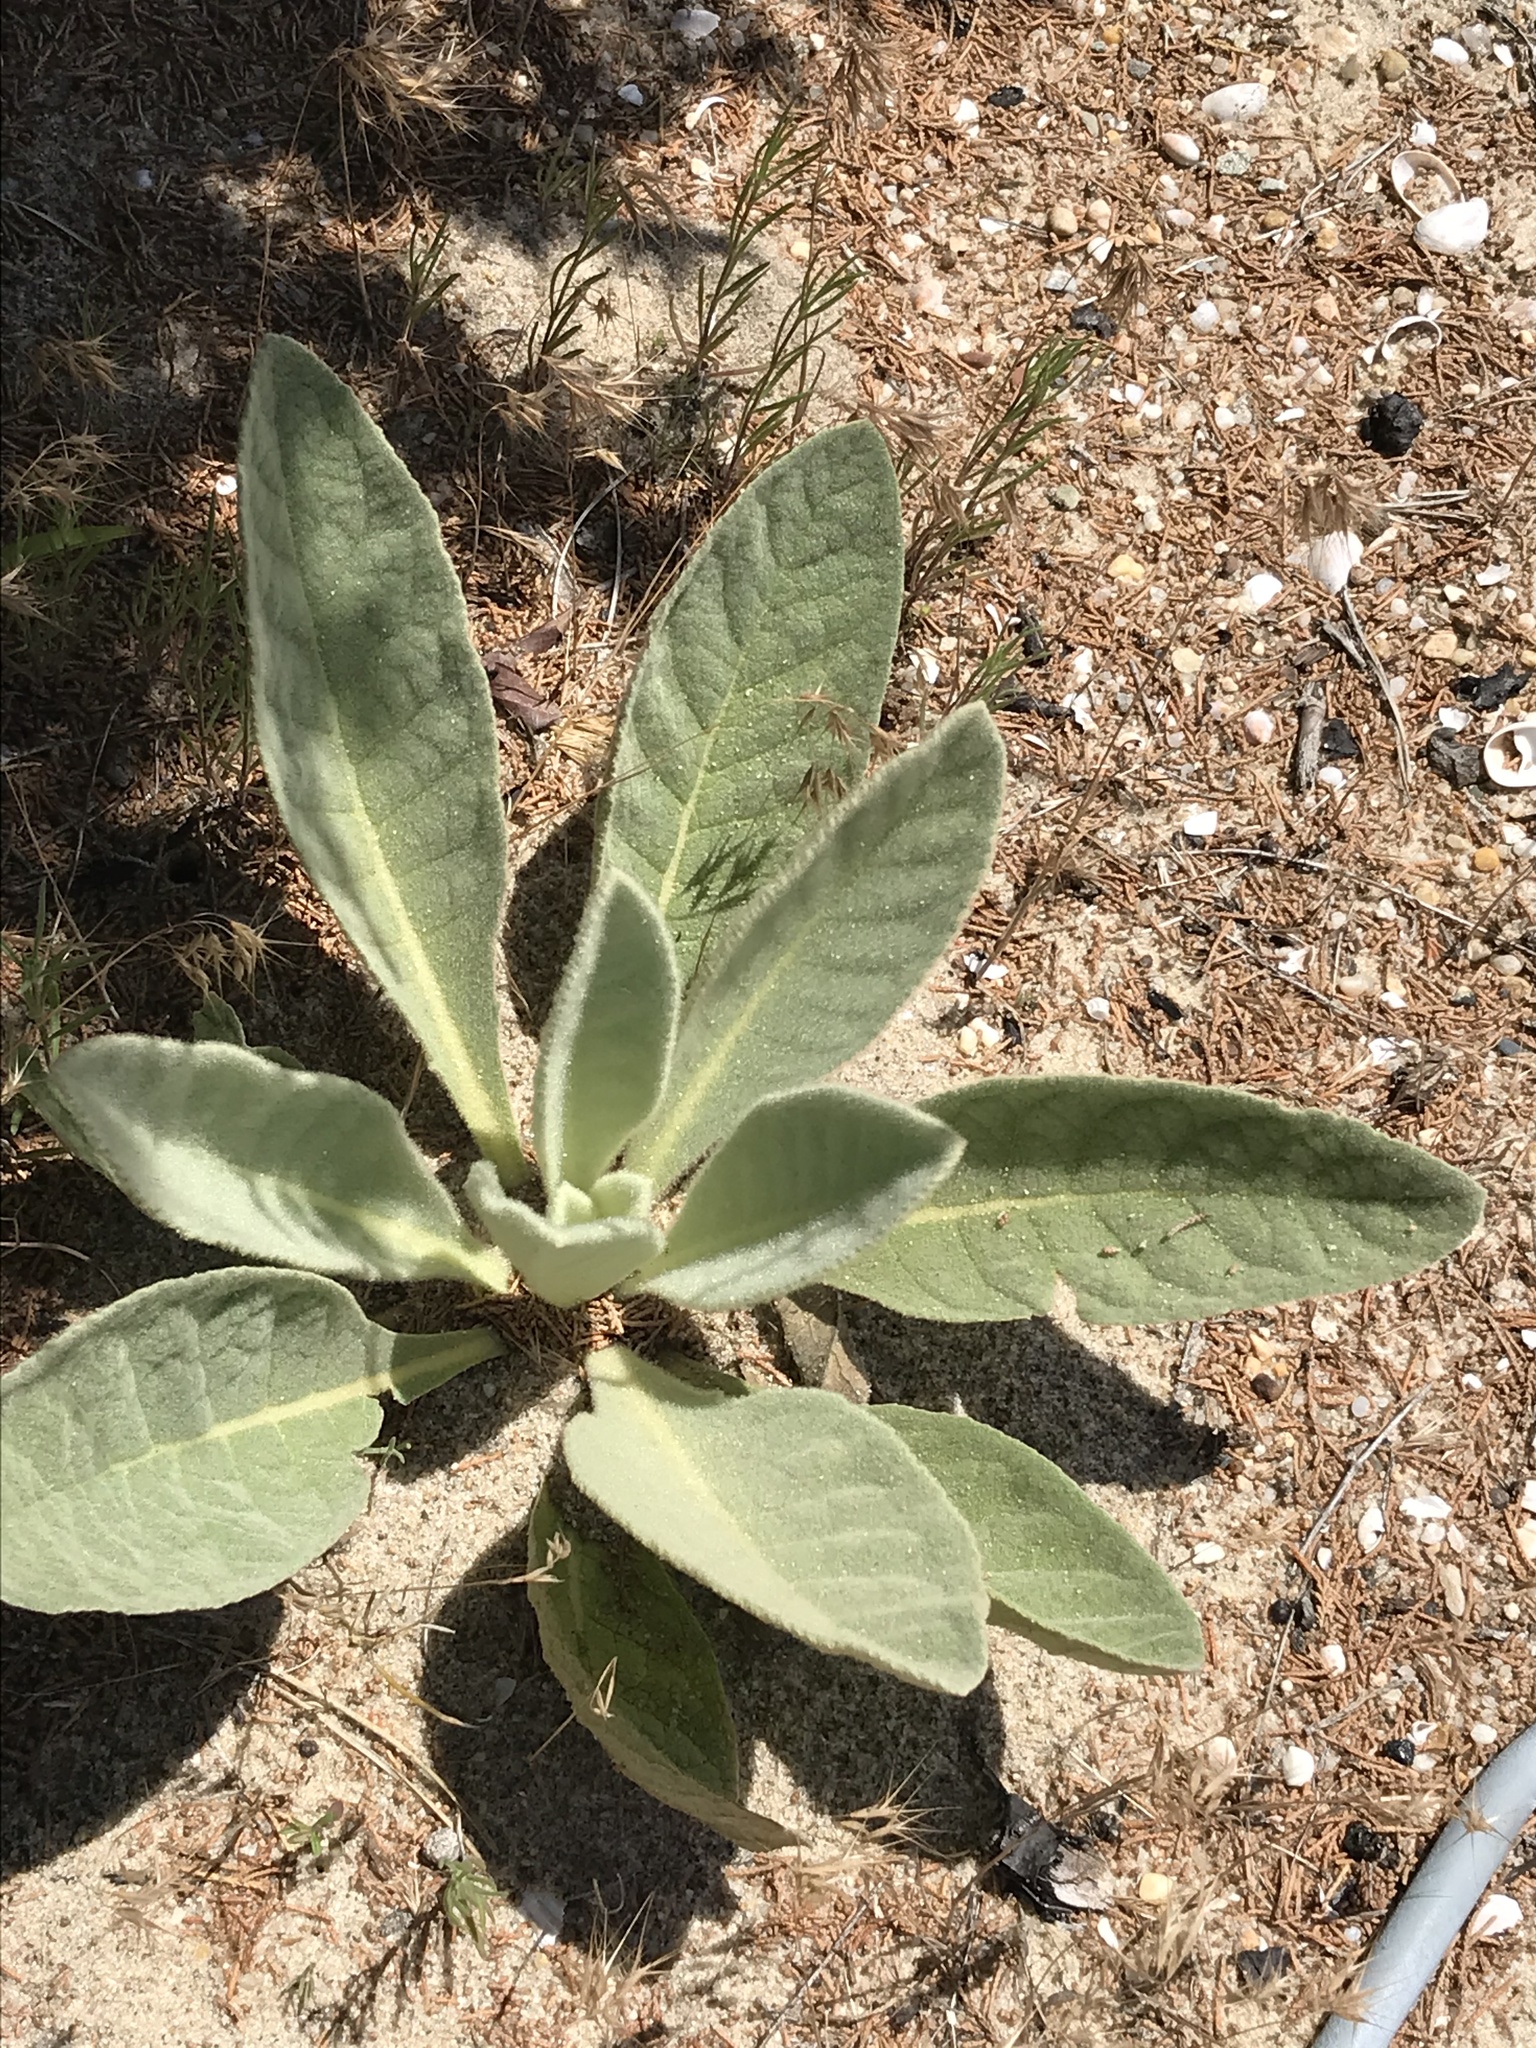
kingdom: Plantae
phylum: Tracheophyta
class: Magnoliopsida
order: Lamiales
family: Scrophulariaceae
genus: Verbascum
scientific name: Verbascum thapsus
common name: Common mullein
